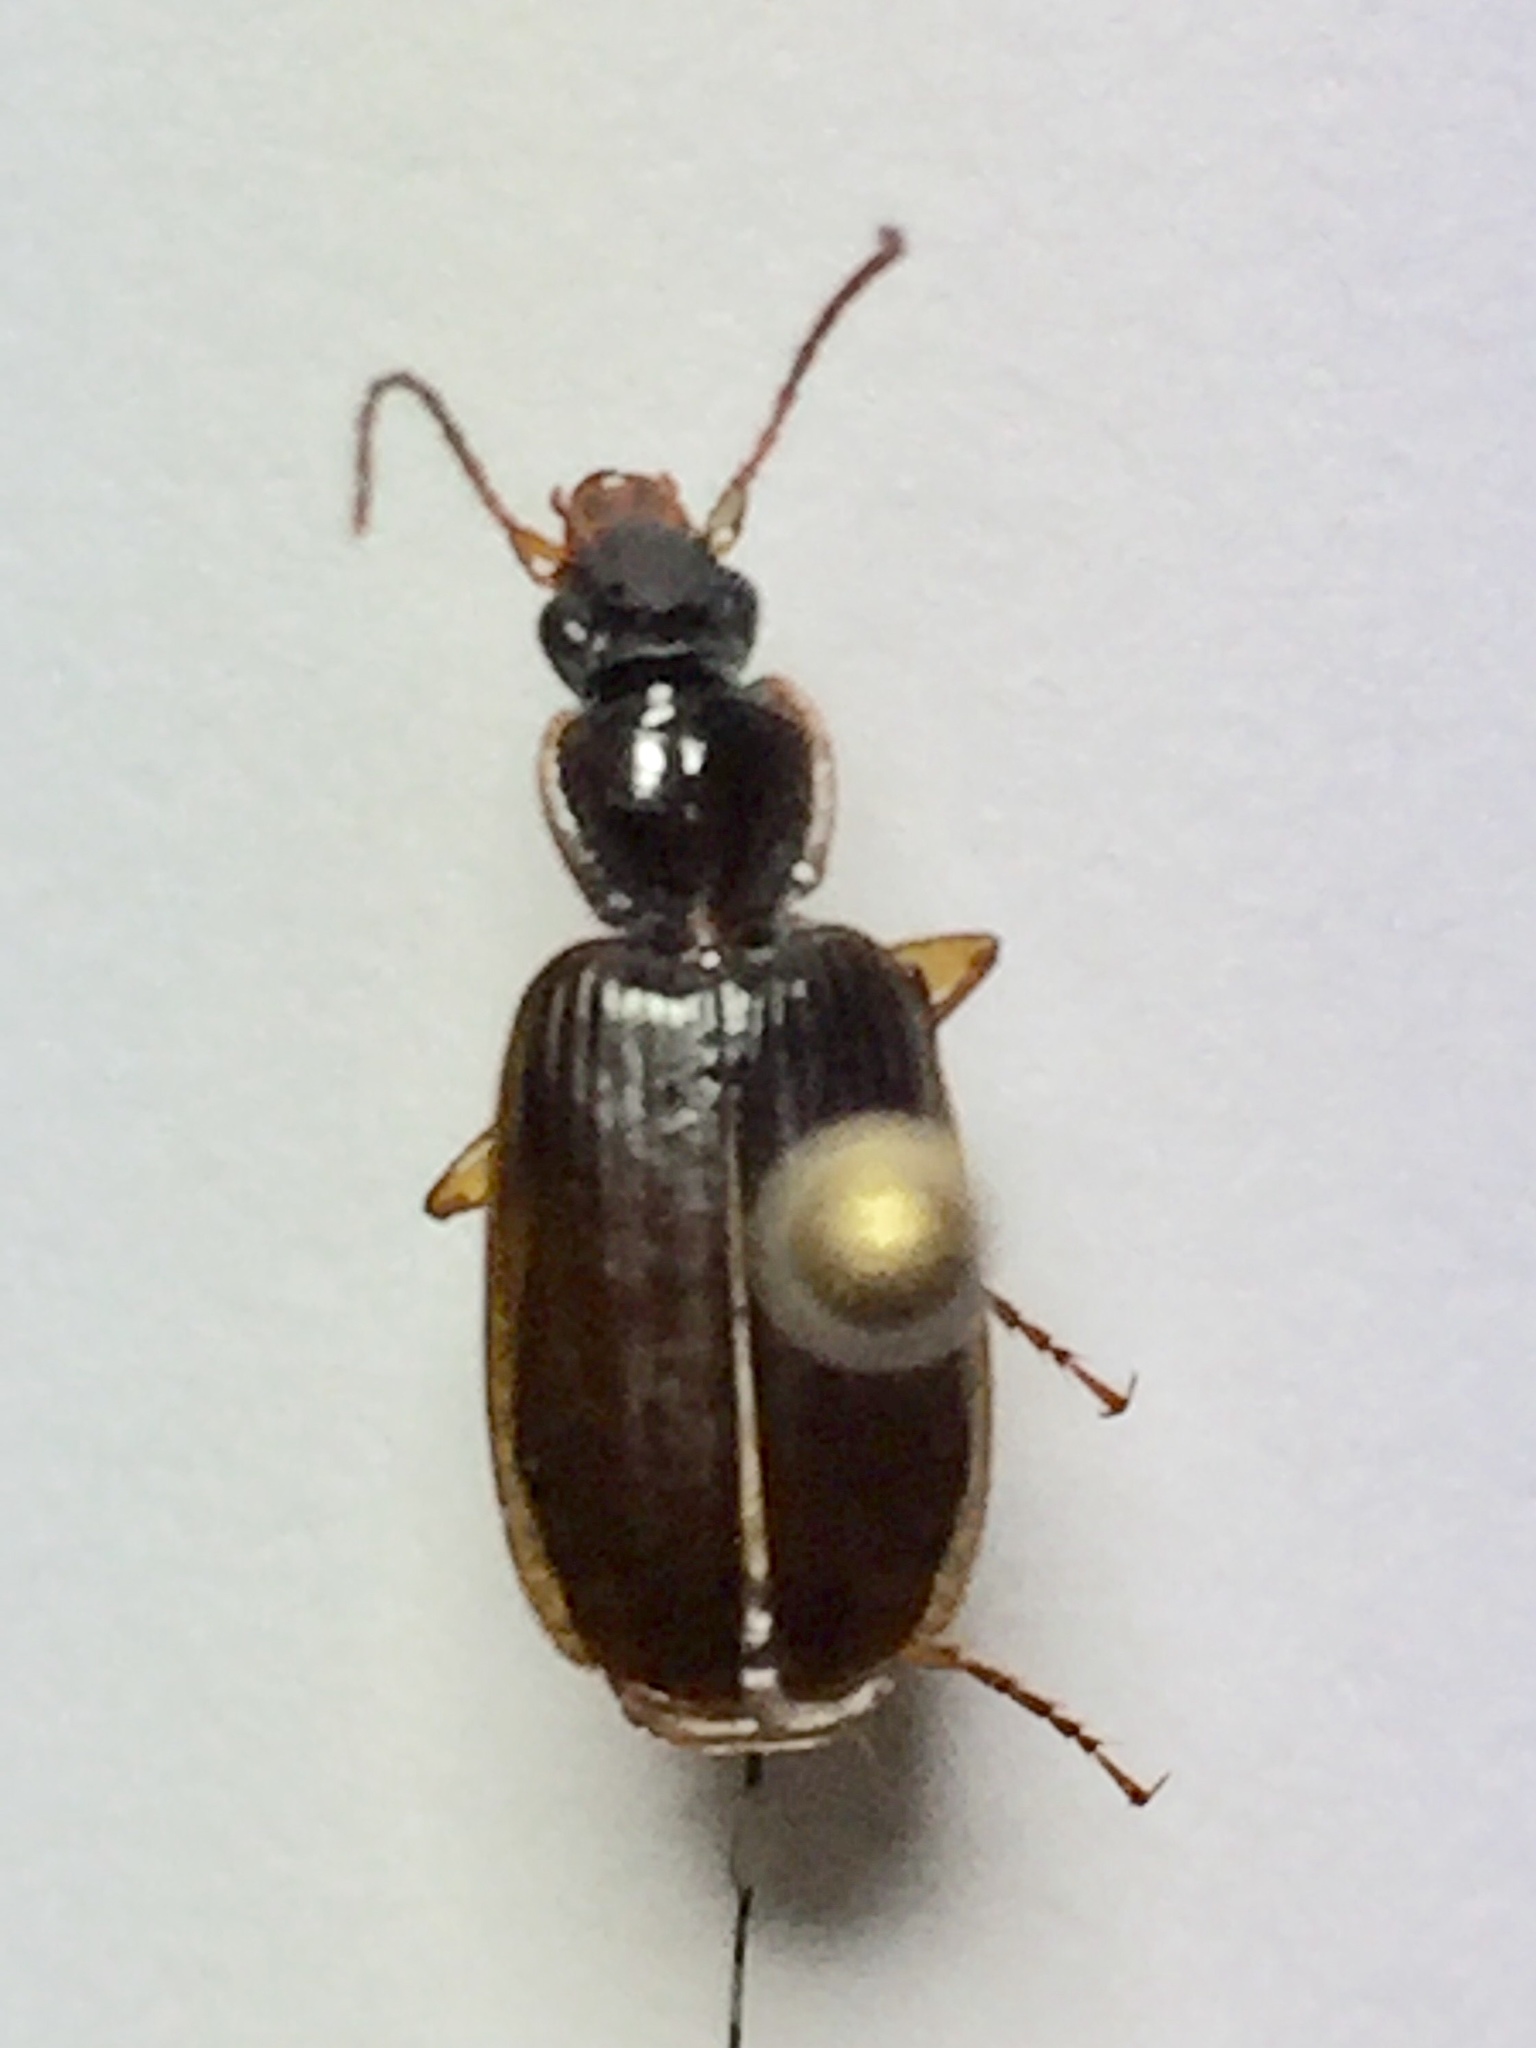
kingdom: Animalia
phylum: Arthropoda
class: Insecta
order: Coleoptera
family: Carabidae
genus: Pinacodera
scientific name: Pinacodera platicollis
